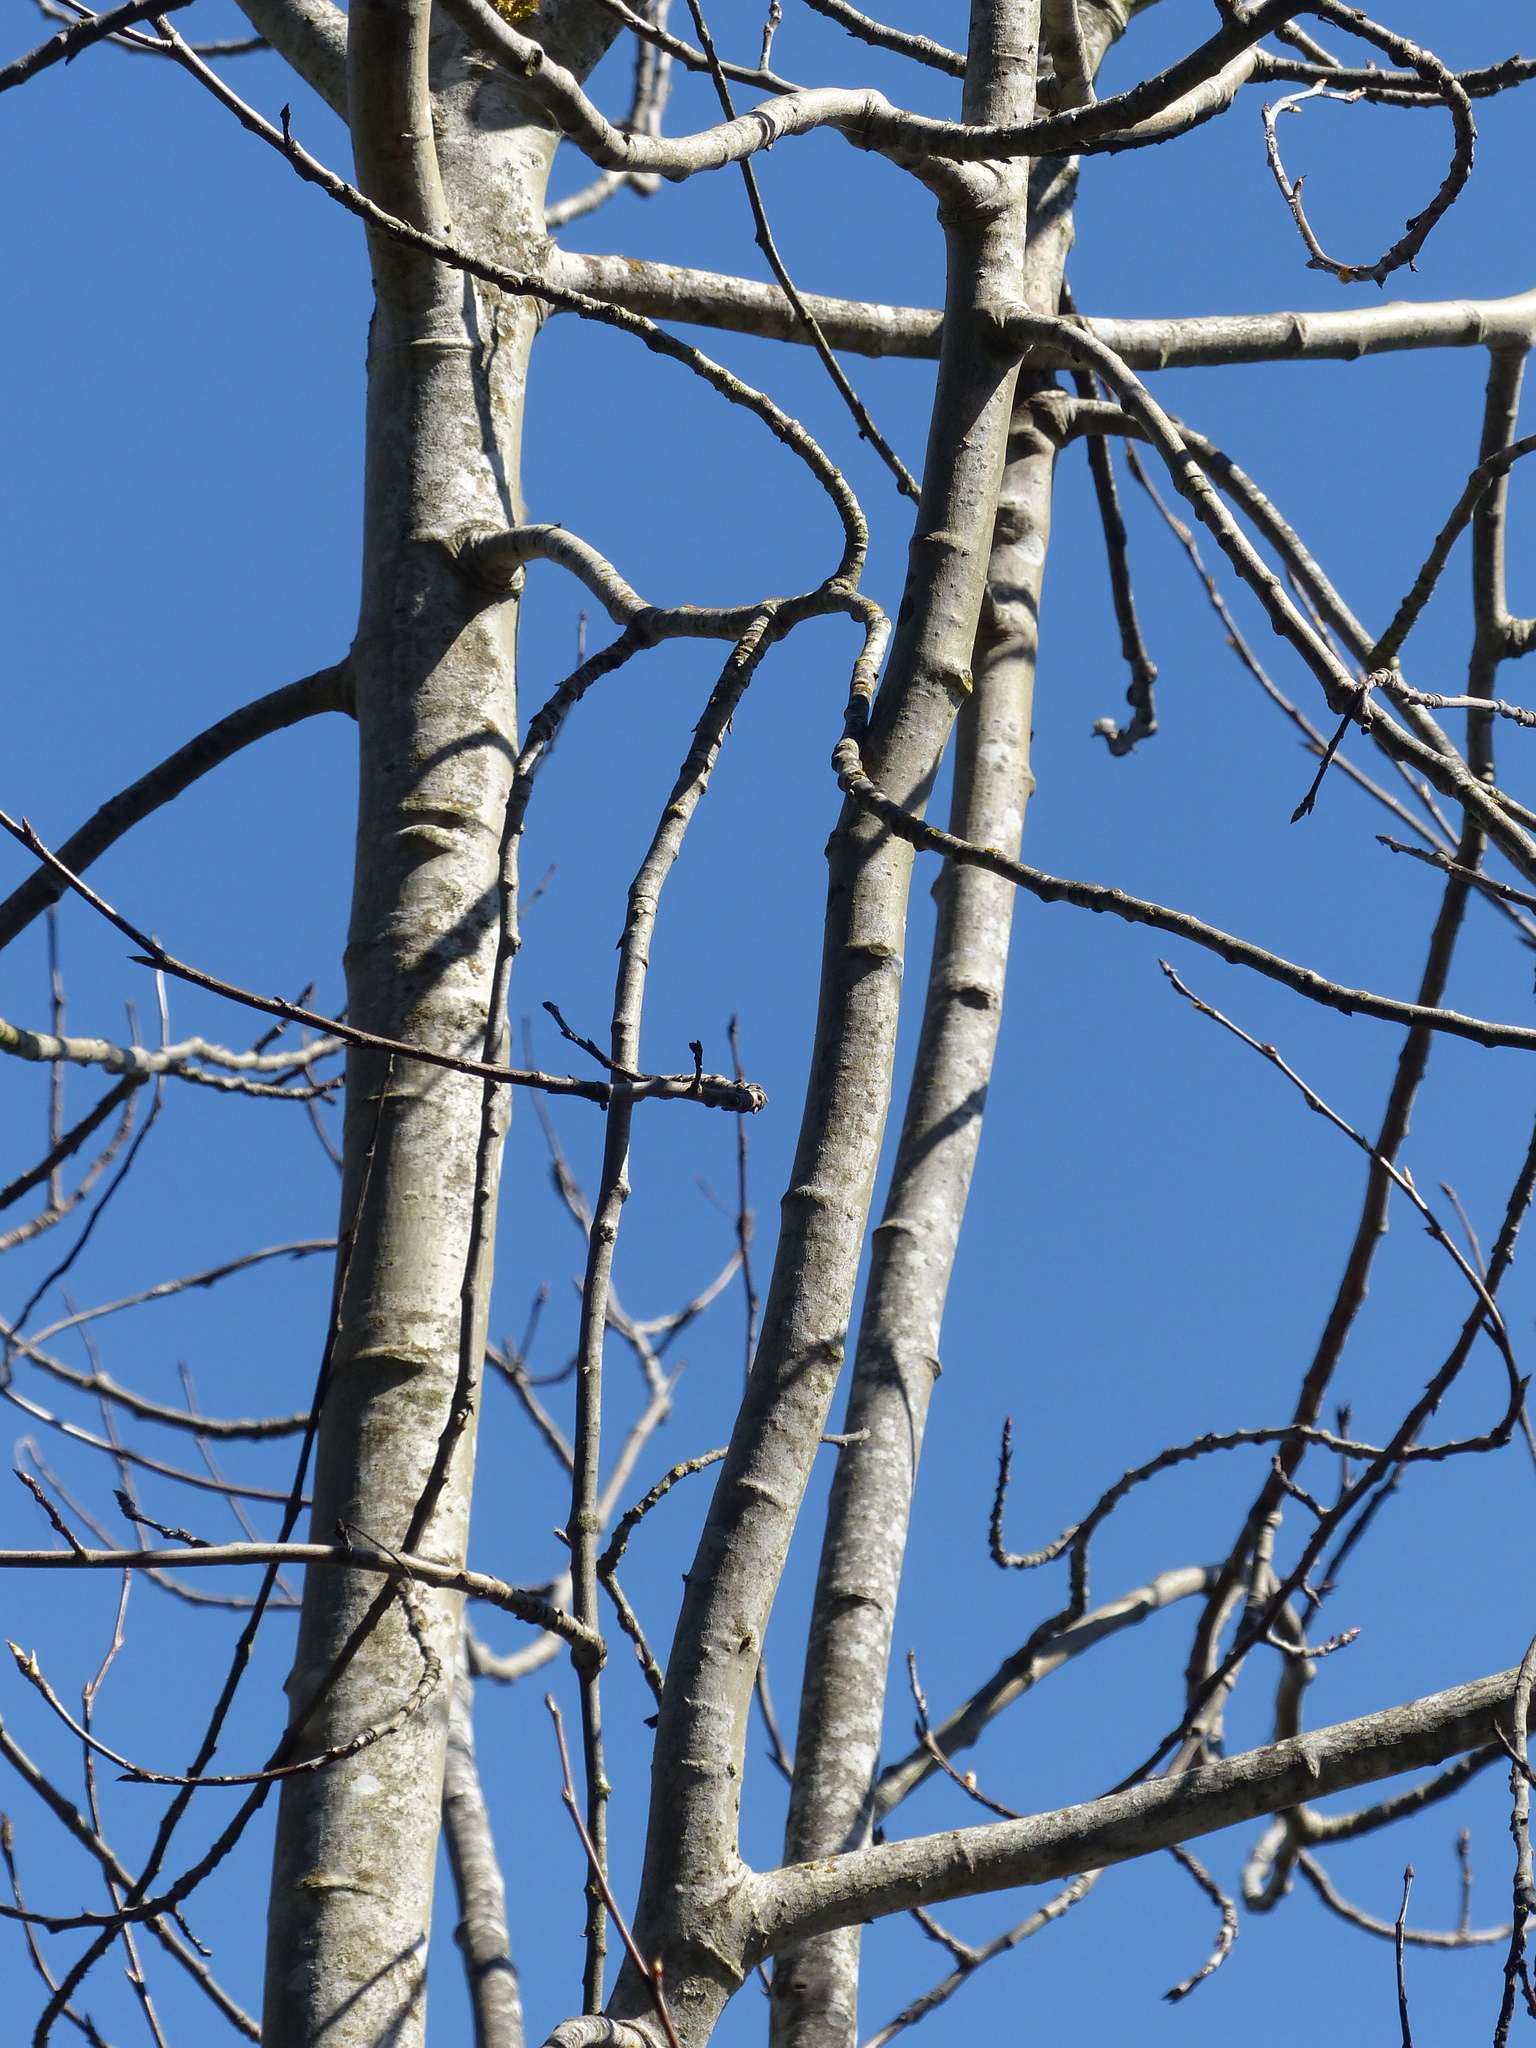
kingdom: Plantae
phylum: Tracheophyta
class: Magnoliopsida
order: Malpighiales
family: Salicaceae
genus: Populus
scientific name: Populus tremuloides
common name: Quaking aspen
